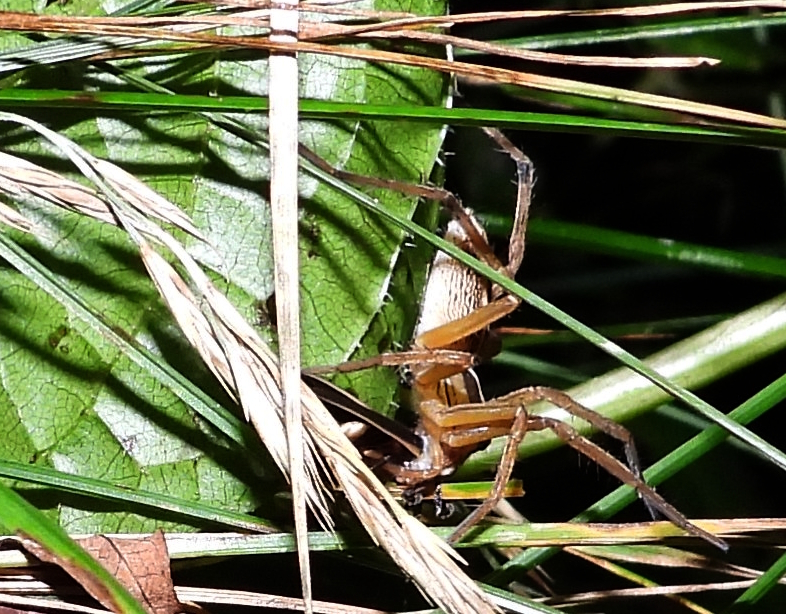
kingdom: Animalia
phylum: Arthropoda
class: Arachnida
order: Araneae
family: Lycosidae
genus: Rabidosa
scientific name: Rabidosa rabida
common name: Rabid wolf spider
